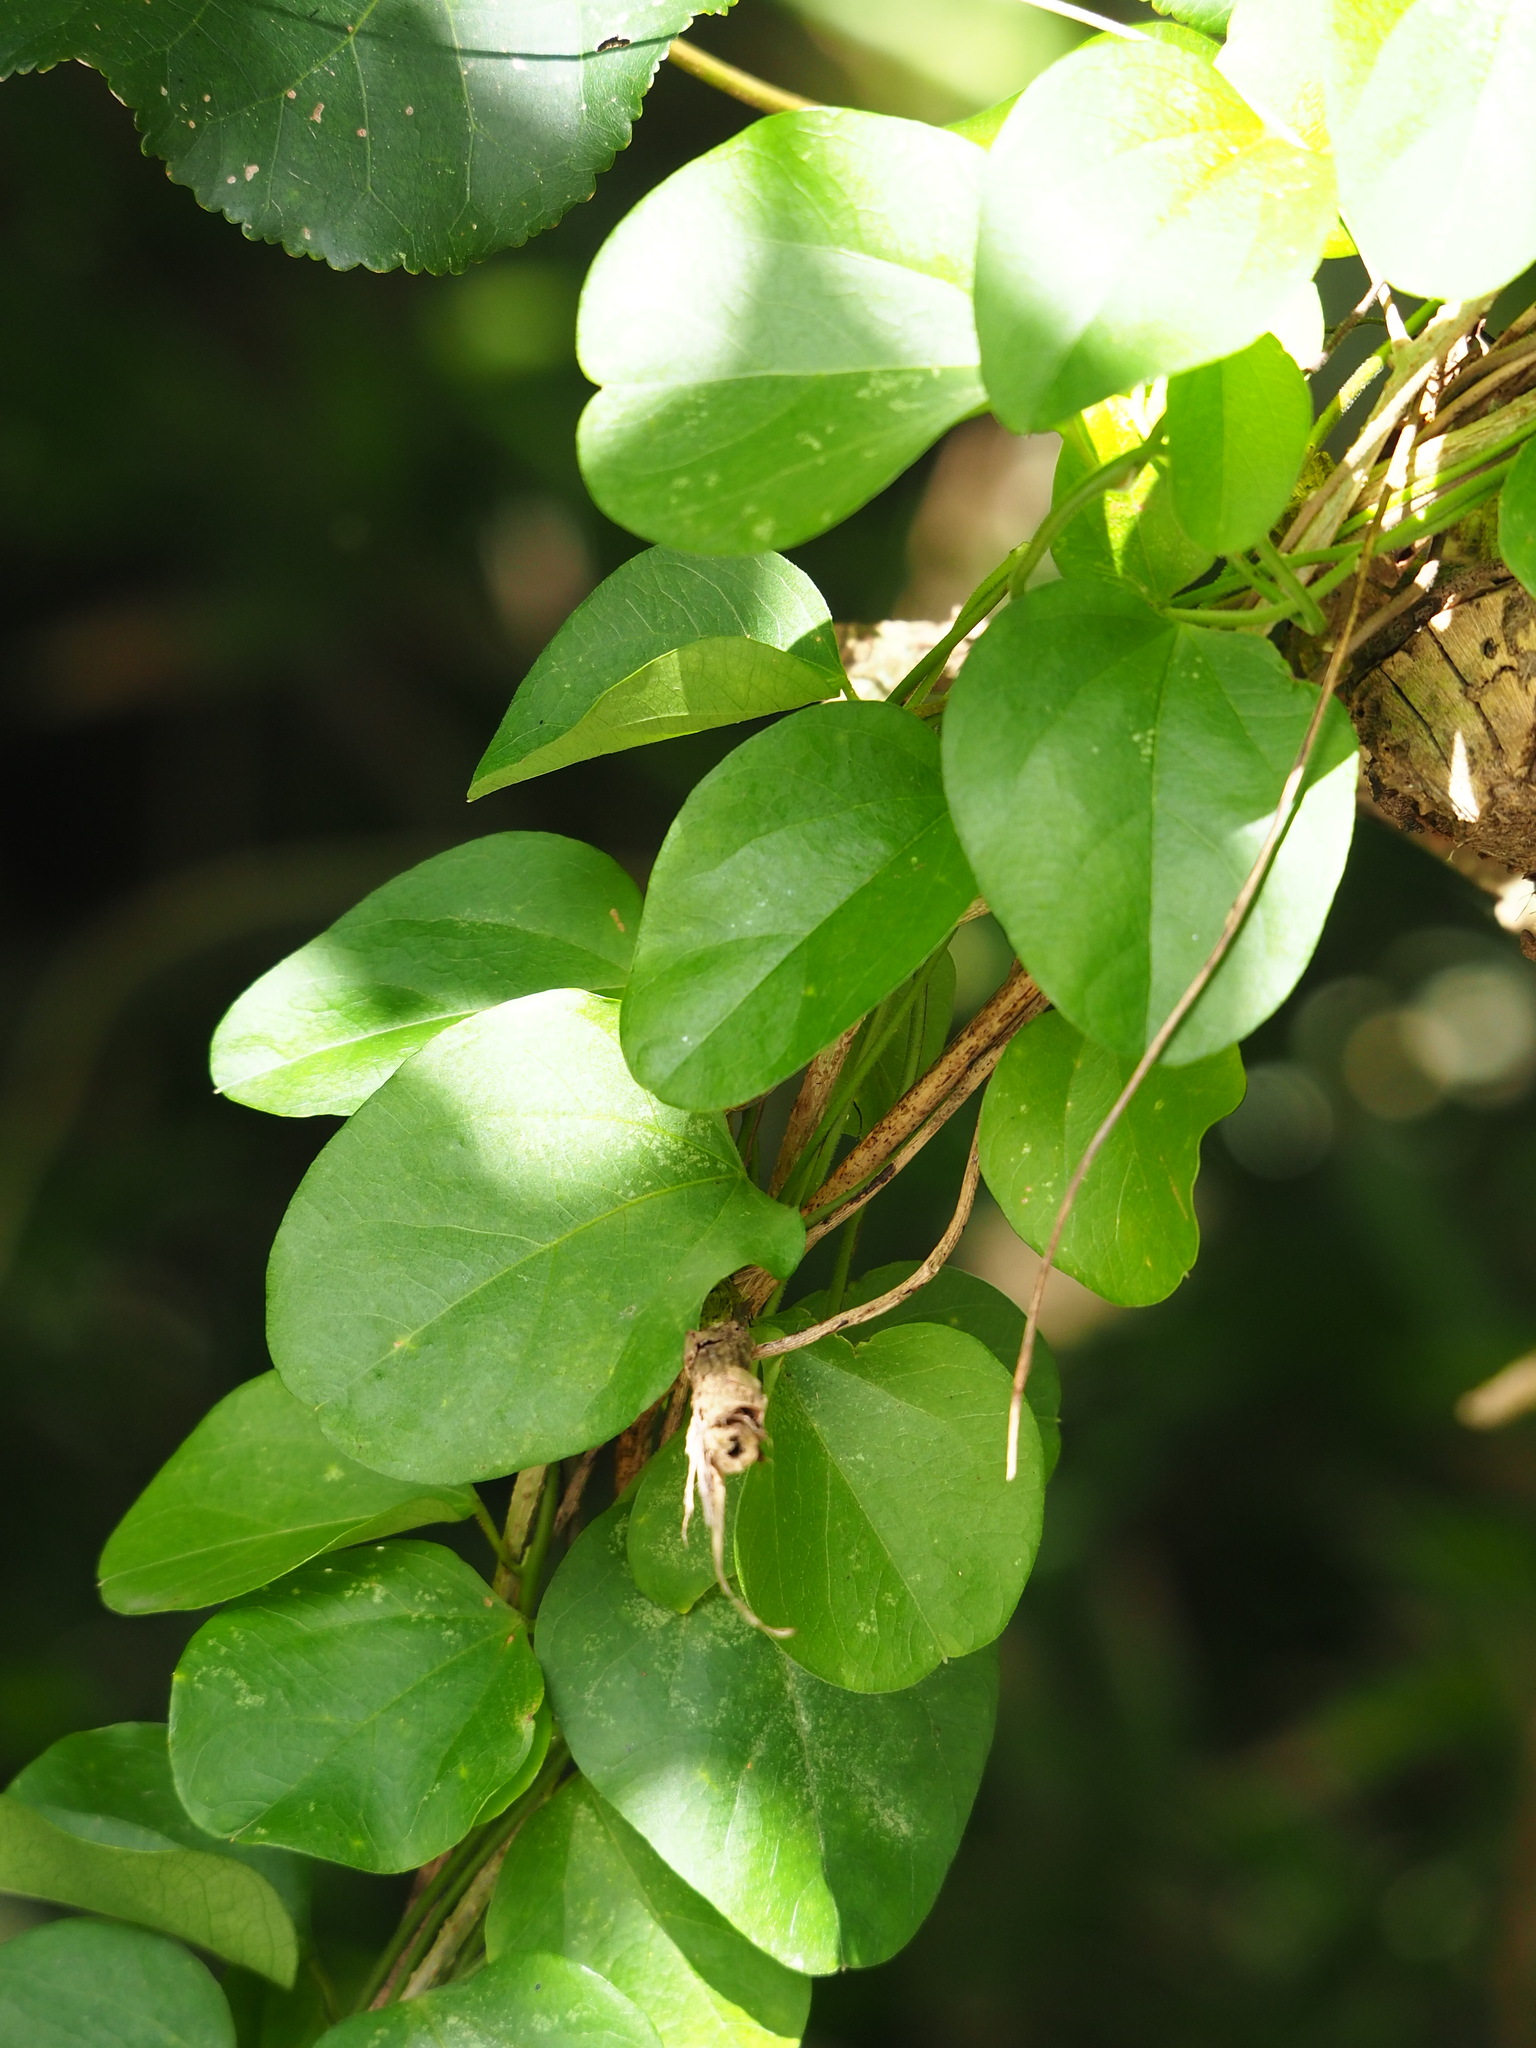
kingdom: Plantae
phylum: Tracheophyta
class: Magnoliopsida
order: Ranunculales
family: Menispermaceae
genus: Cocculus
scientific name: Cocculus orbiculatus
